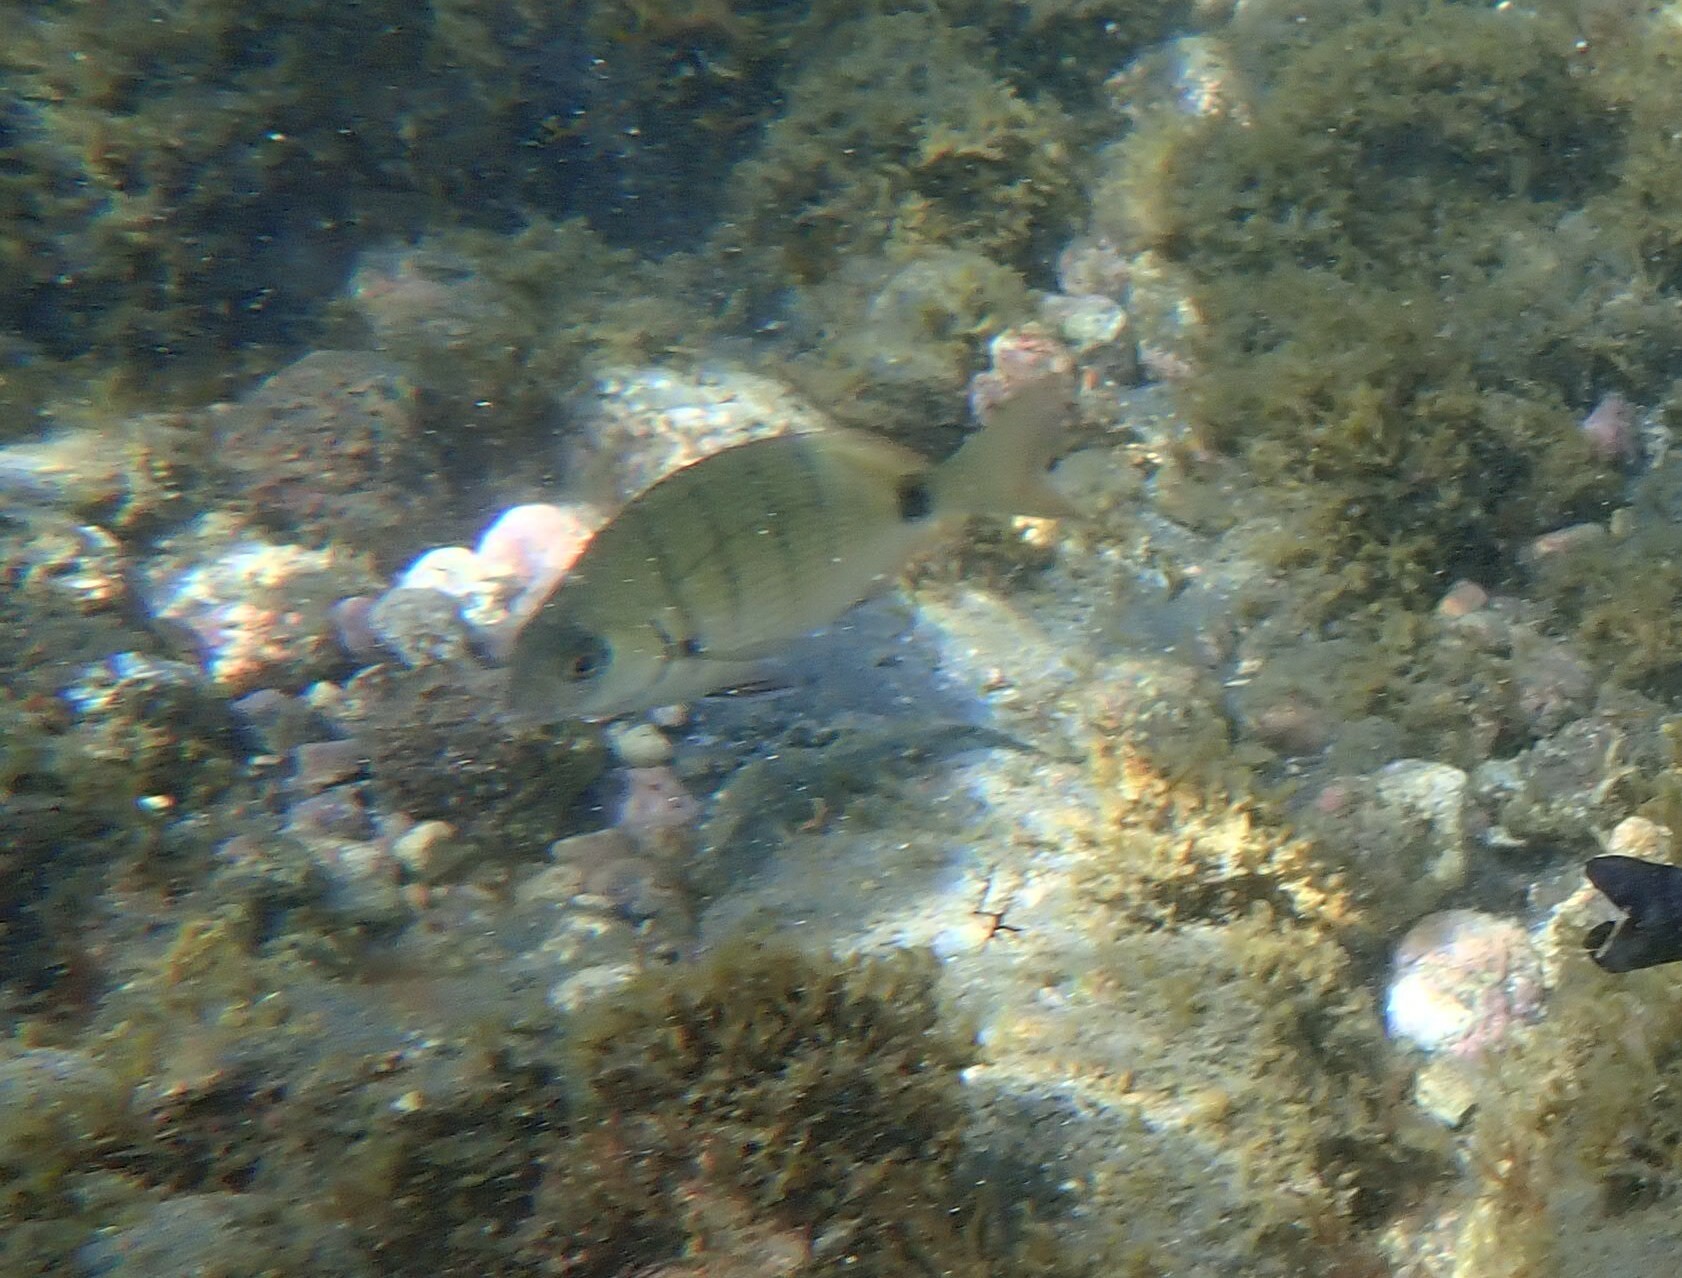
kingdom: Animalia
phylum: Chordata
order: Perciformes
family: Sparidae
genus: Diplodus
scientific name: Diplodus cadenati
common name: Moroccan white seabream
